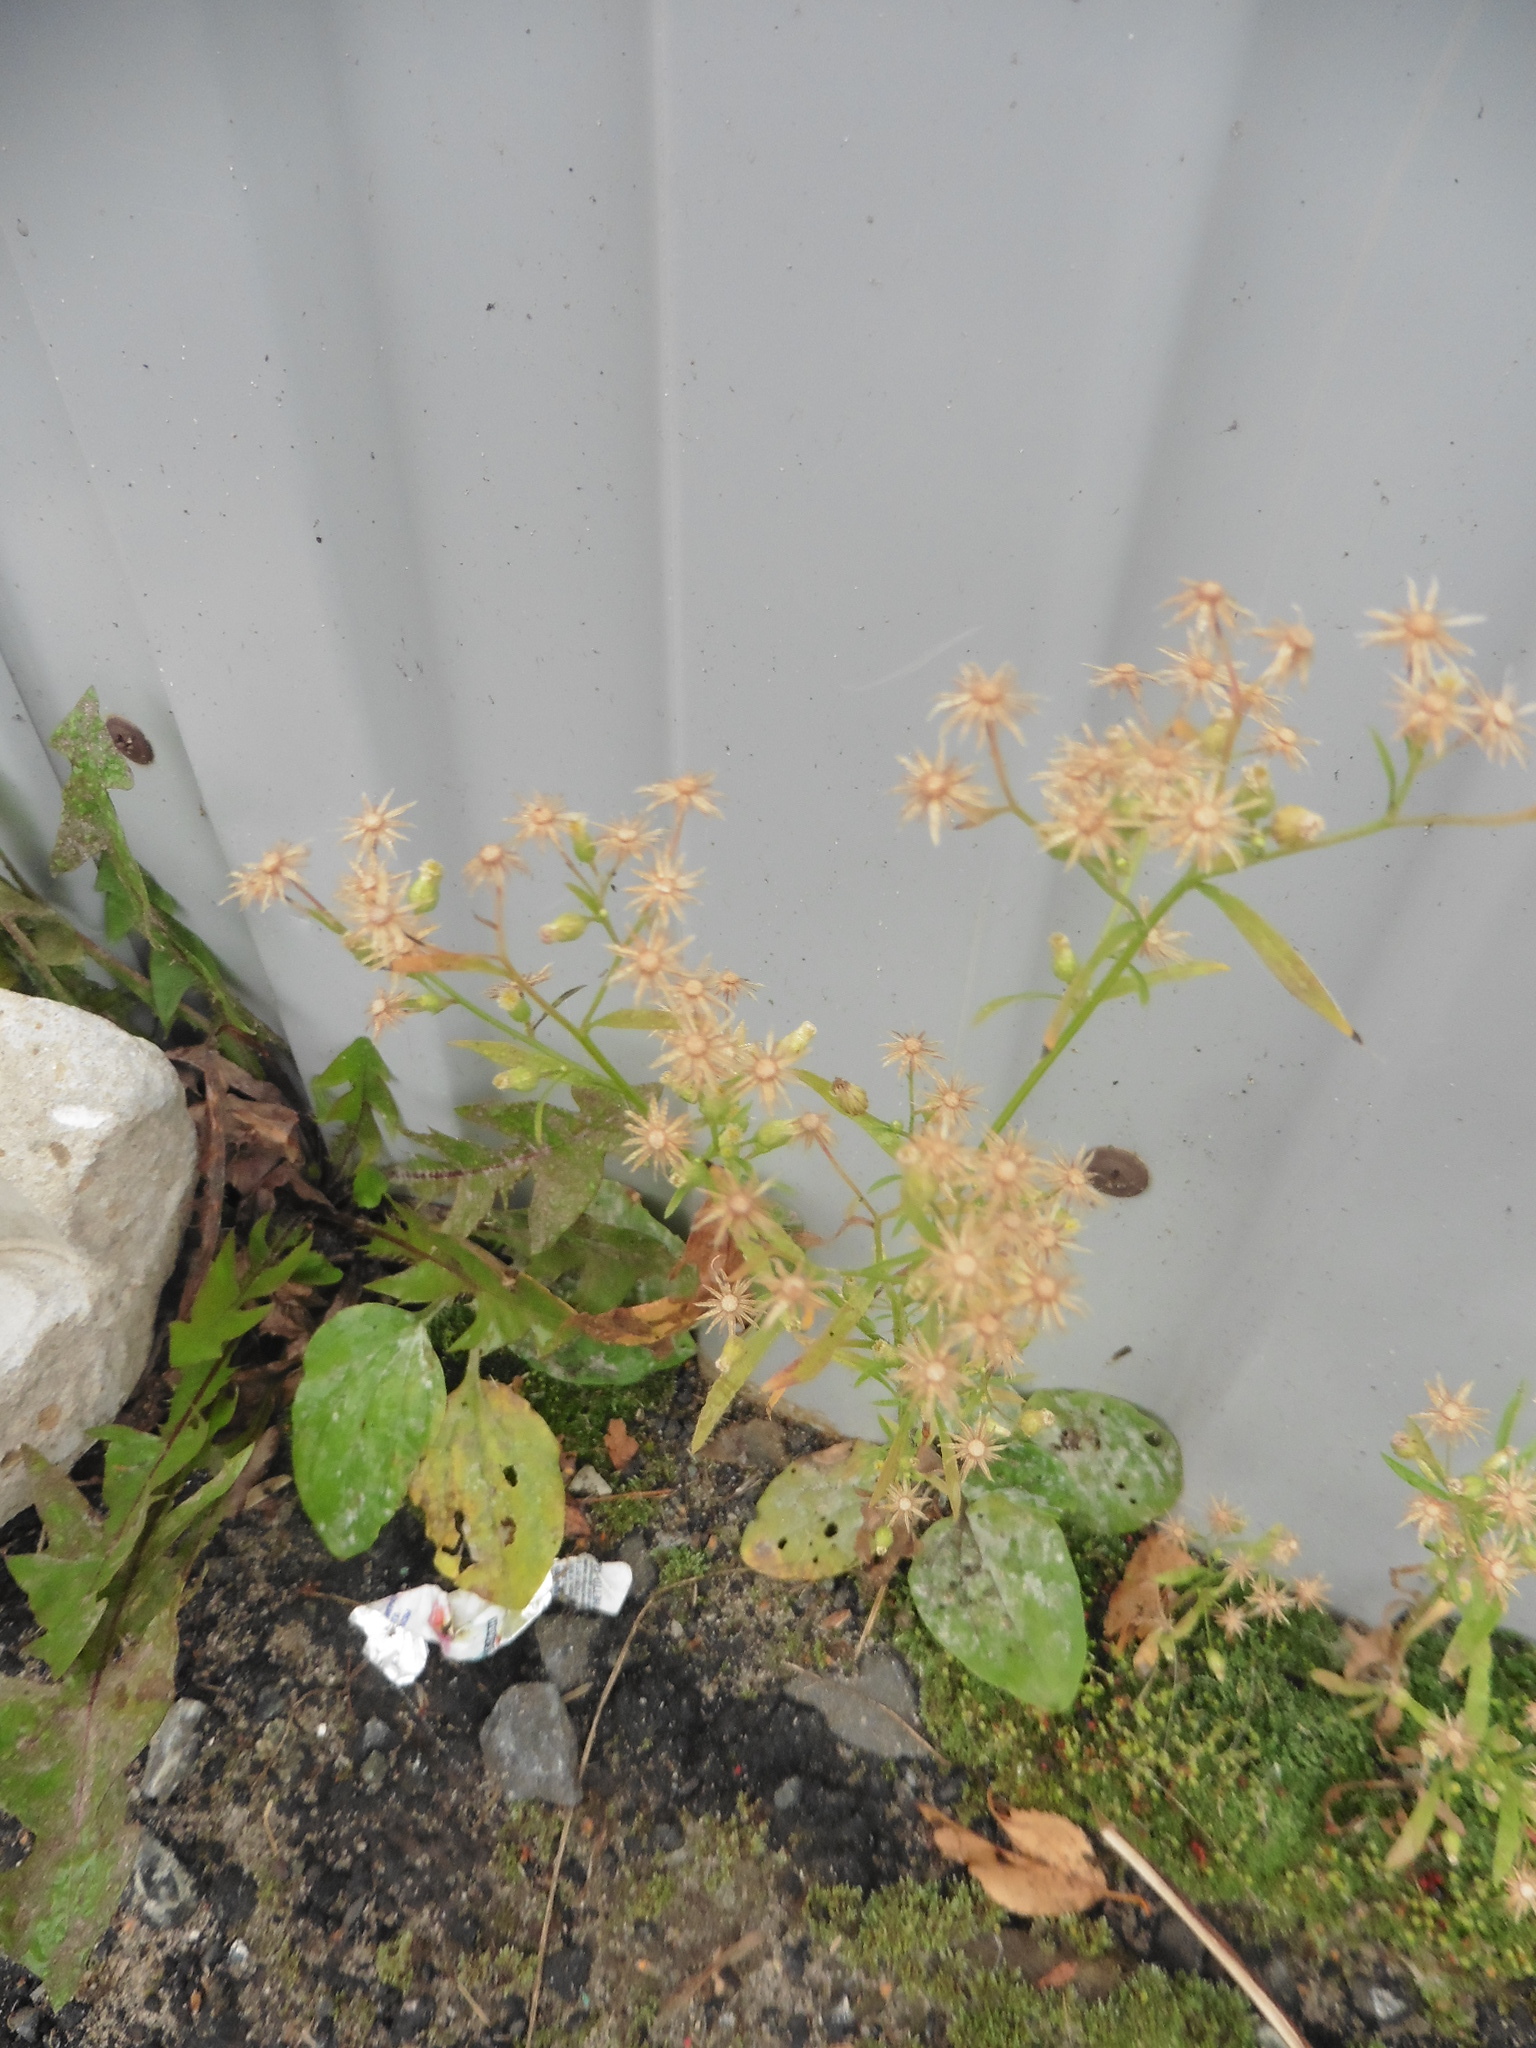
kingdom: Plantae
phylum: Tracheophyta
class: Magnoliopsida
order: Asterales
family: Asteraceae
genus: Erigeron
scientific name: Erigeron canadensis
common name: Canadian fleabane
